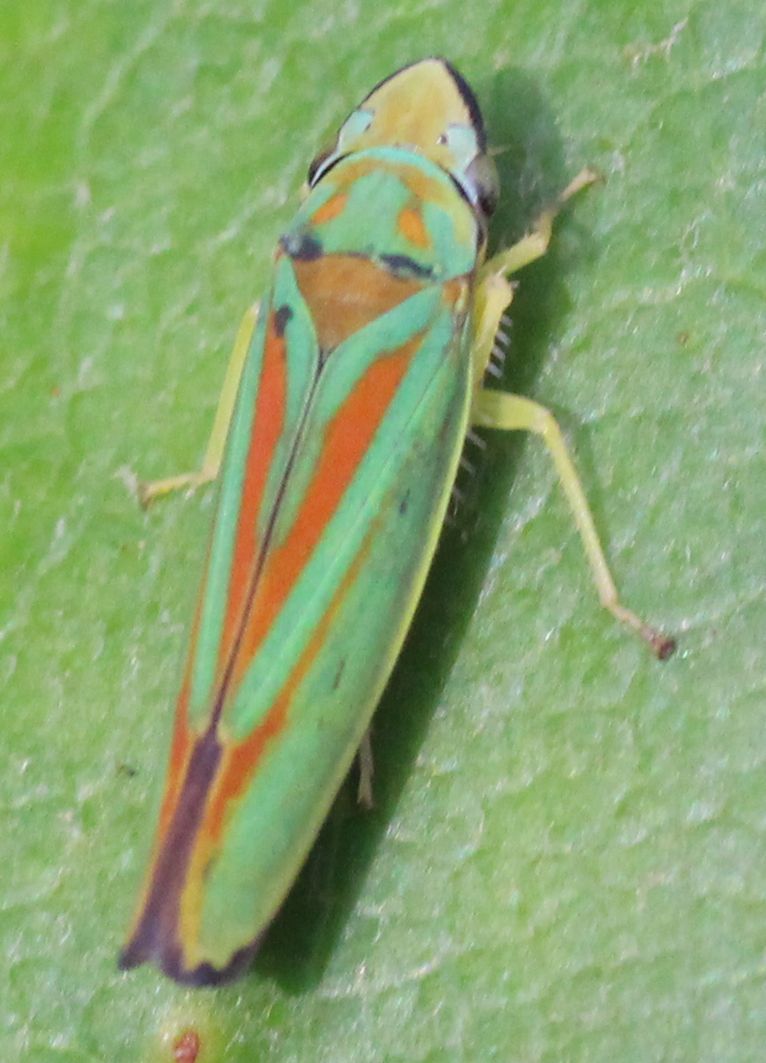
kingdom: Animalia
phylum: Arthropoda
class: Insecta
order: Hemiptera
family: Cicadellidae
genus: Graphocephala
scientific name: Graphocephala fennahi
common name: Rhododendron leafhopper
